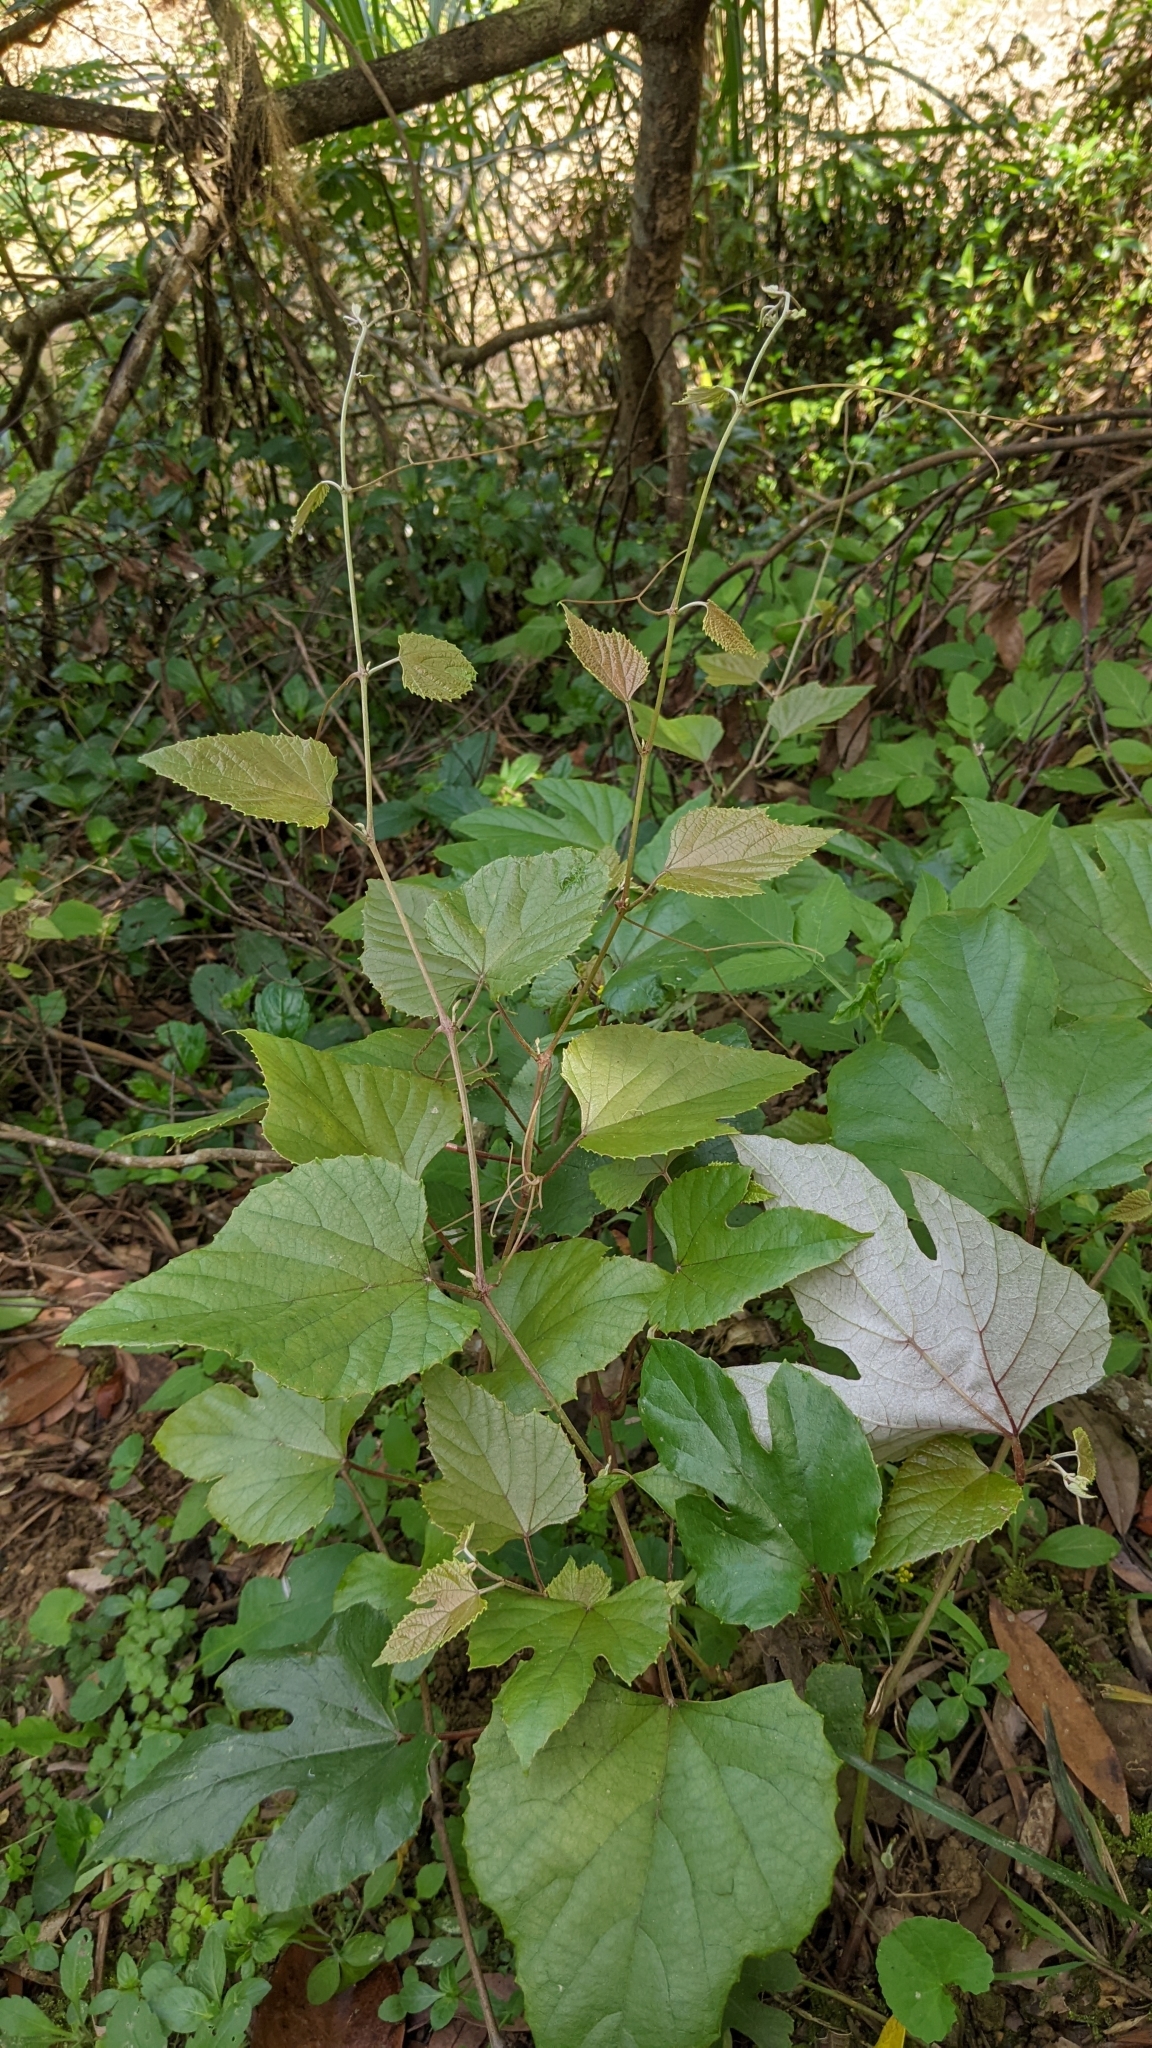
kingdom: Plantae
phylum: Tracheophyta
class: Magnoliopsida
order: Vitales
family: Vitaceae
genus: Vitis
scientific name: Vitis heyneana
